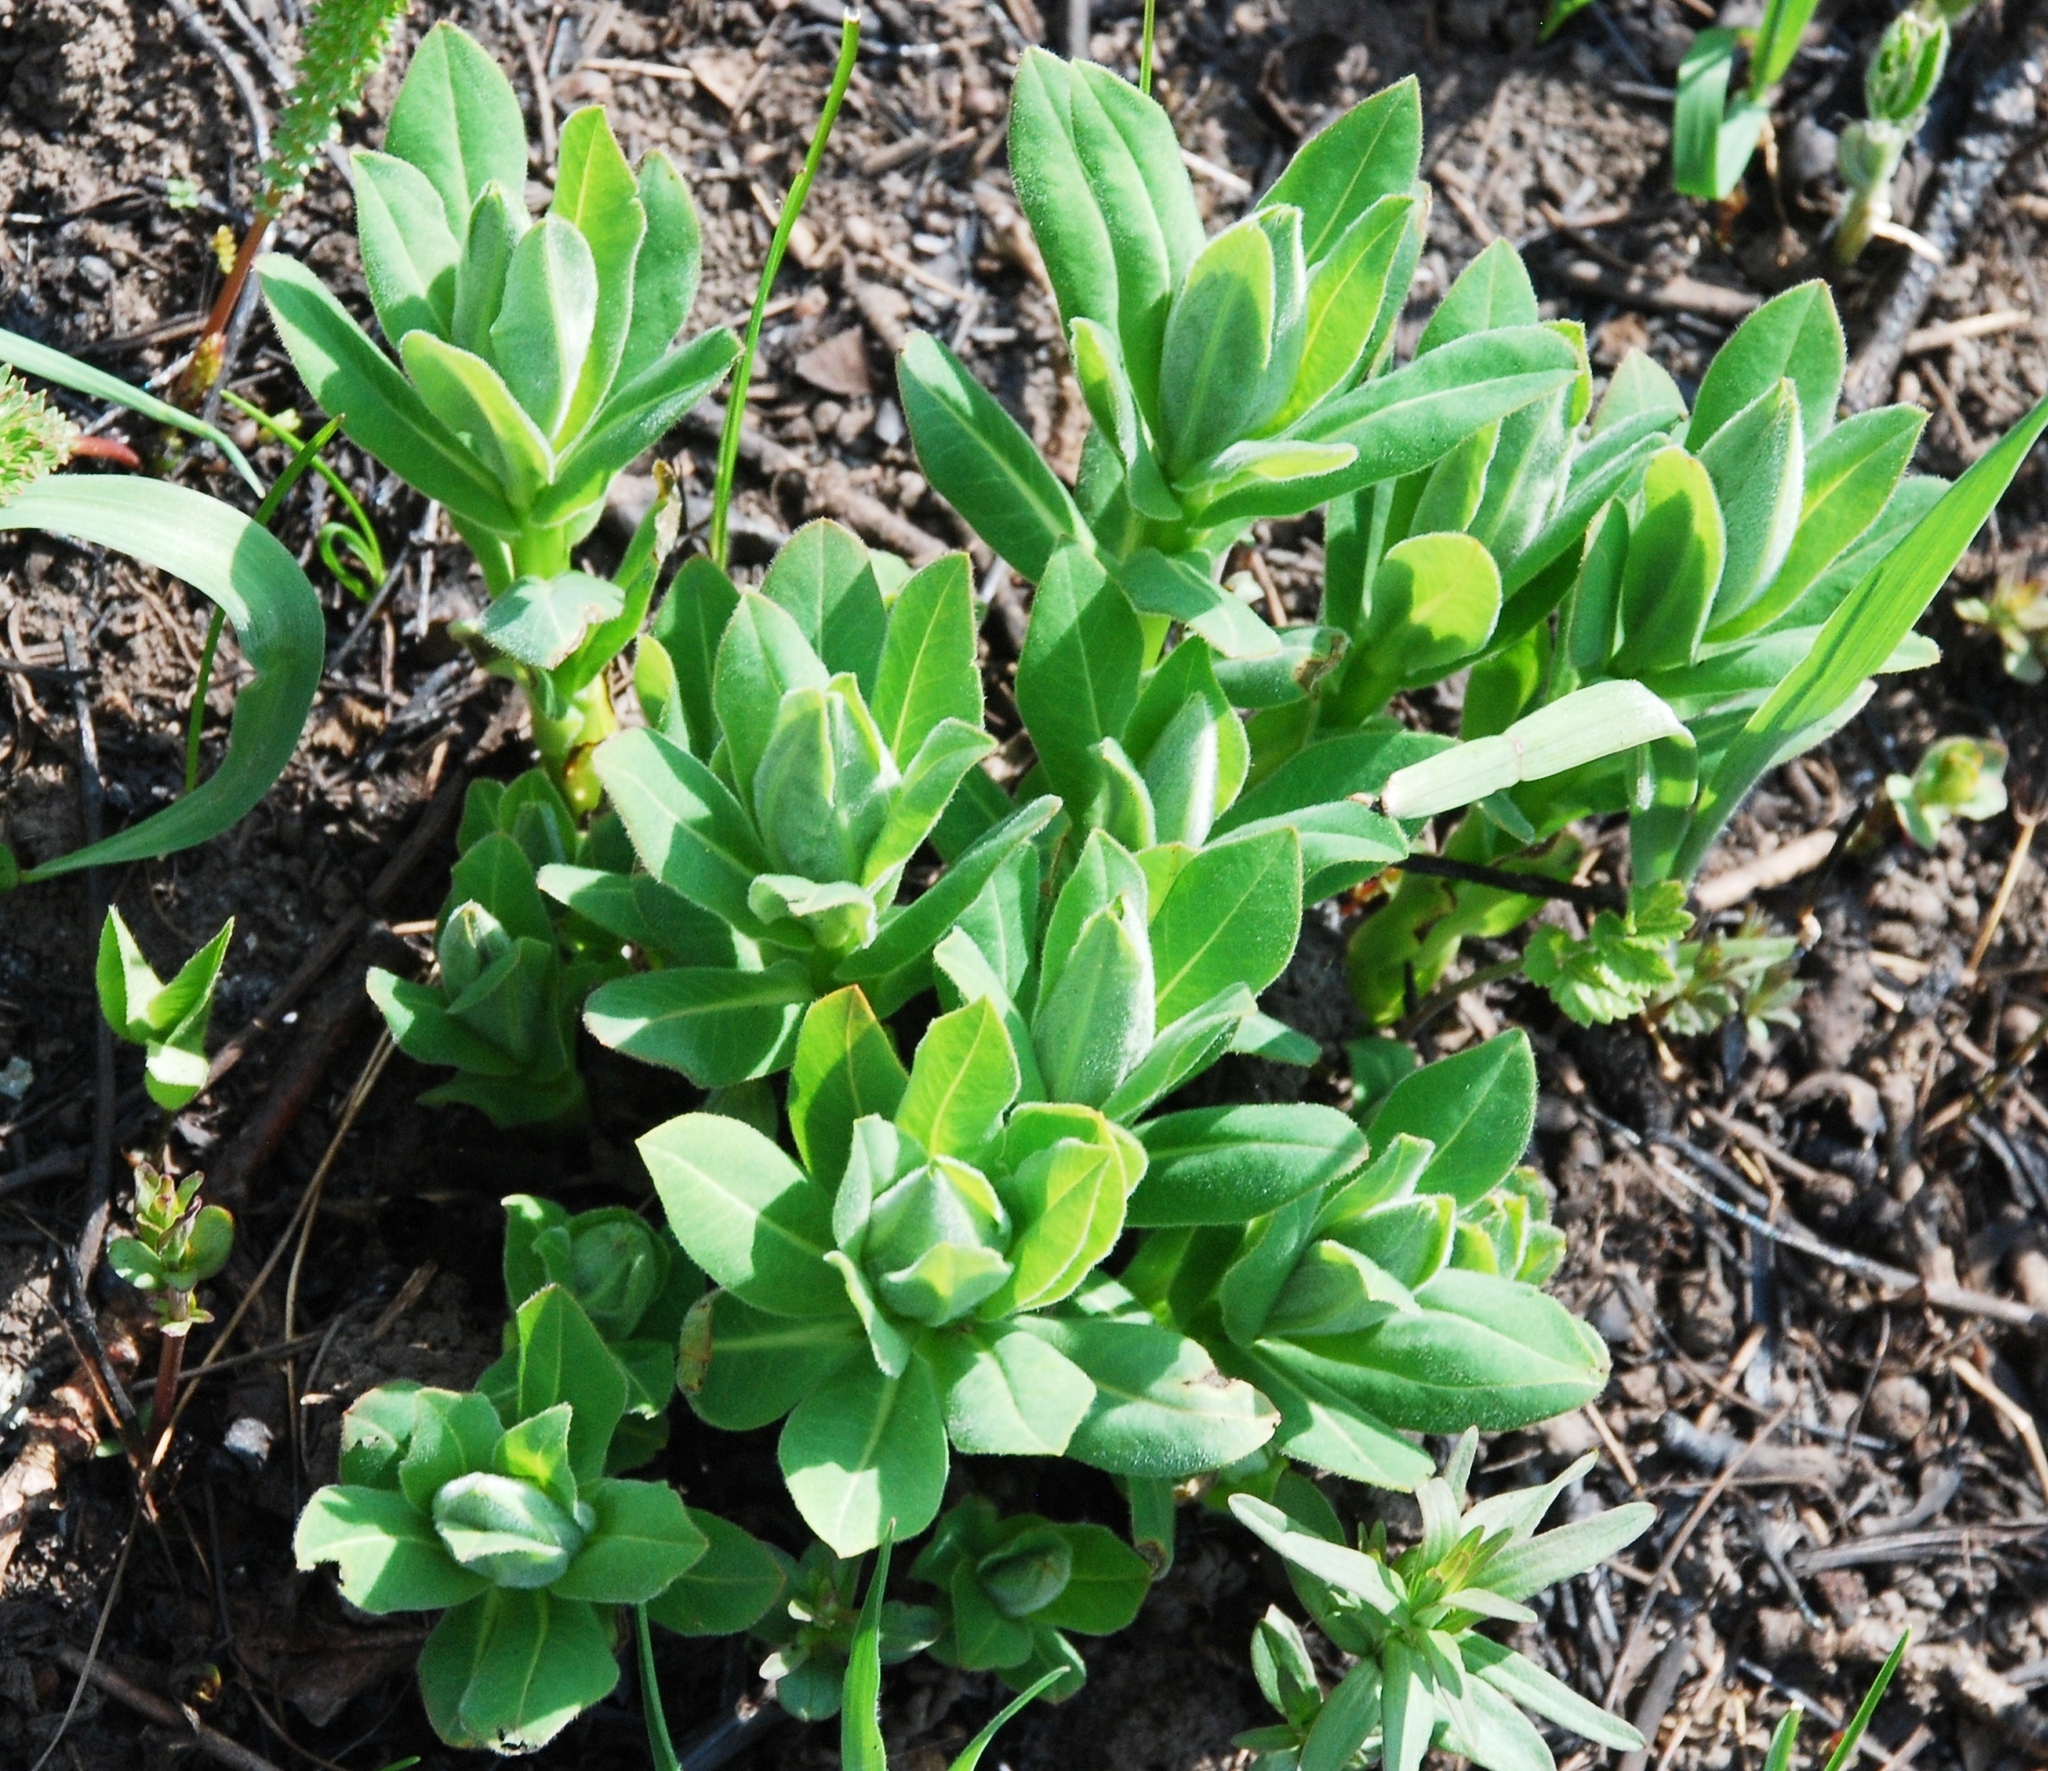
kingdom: Plantae
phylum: Tracheophyta
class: Magnoliopsida
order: Malpighiales
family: Euphorbiaceae
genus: Euphorbia
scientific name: Euphorbia semivillosa
